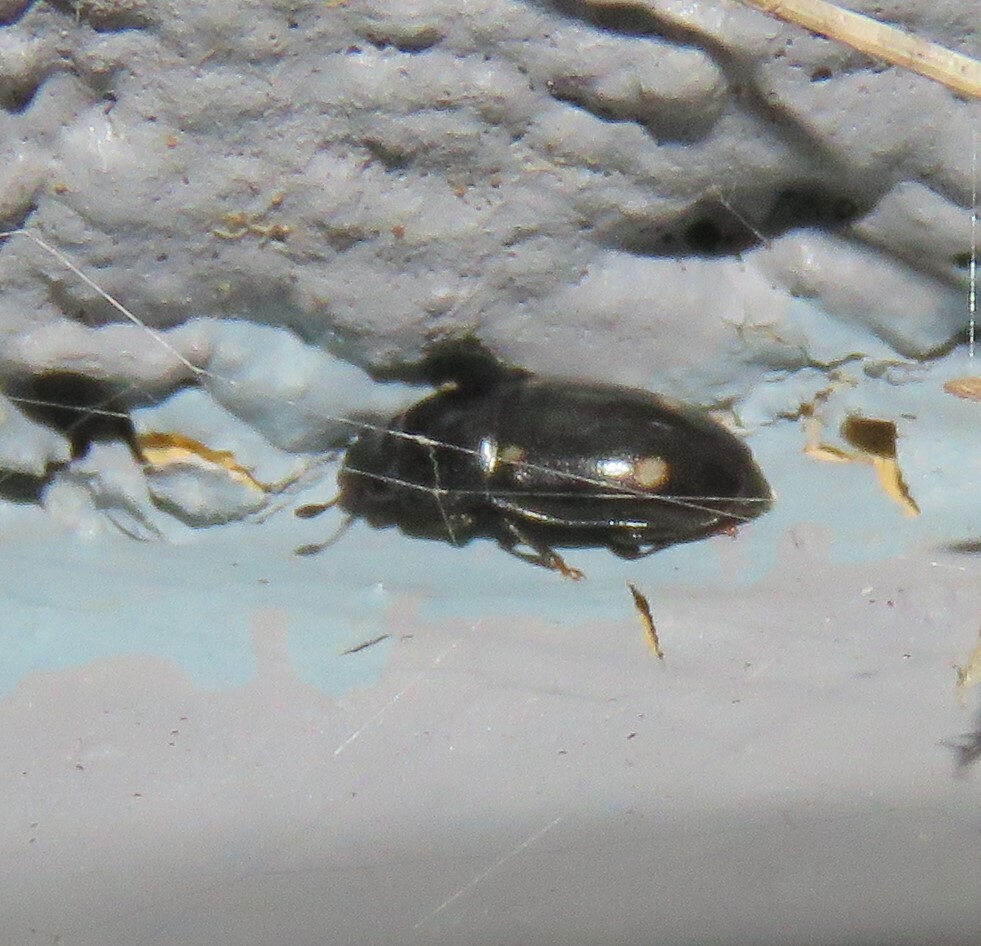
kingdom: Animalia
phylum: Arthropoda
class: Insecta
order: Coleoptera
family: Nitidulidae
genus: Glischrochilus
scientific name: Glischrochilus siepmanni
